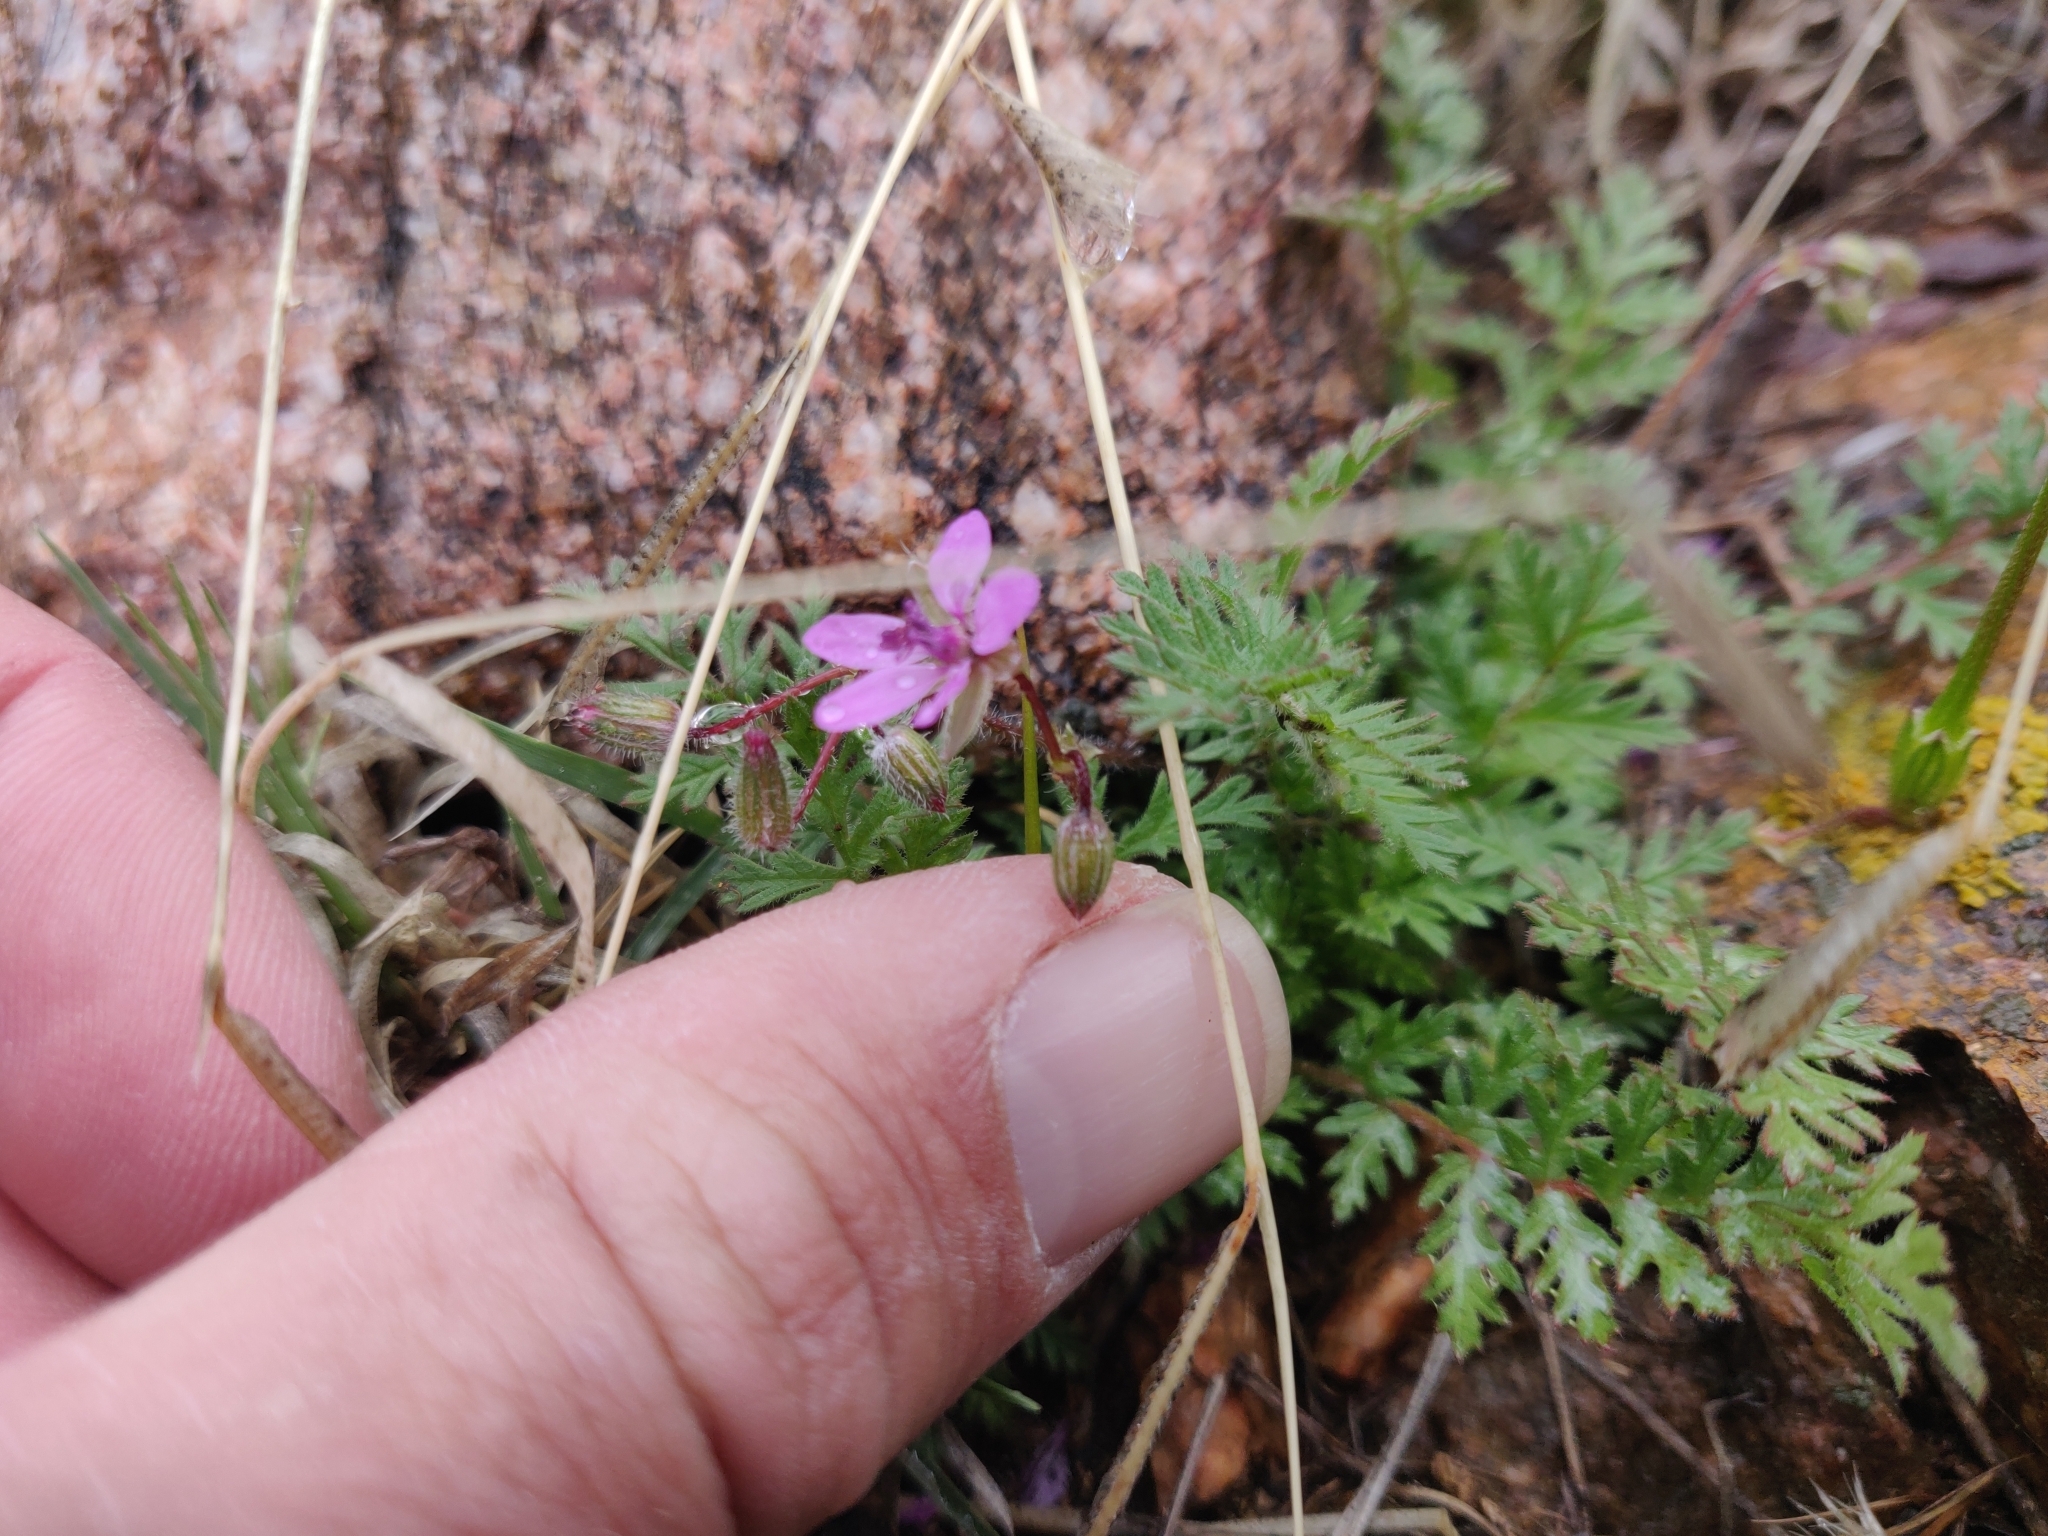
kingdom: Plantae
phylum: Tracheophyta
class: Magnoliopsida
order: Geraniales
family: Geraniaceae
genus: Erodium
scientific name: Erodium cicutarium
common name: Common stork's-bill
